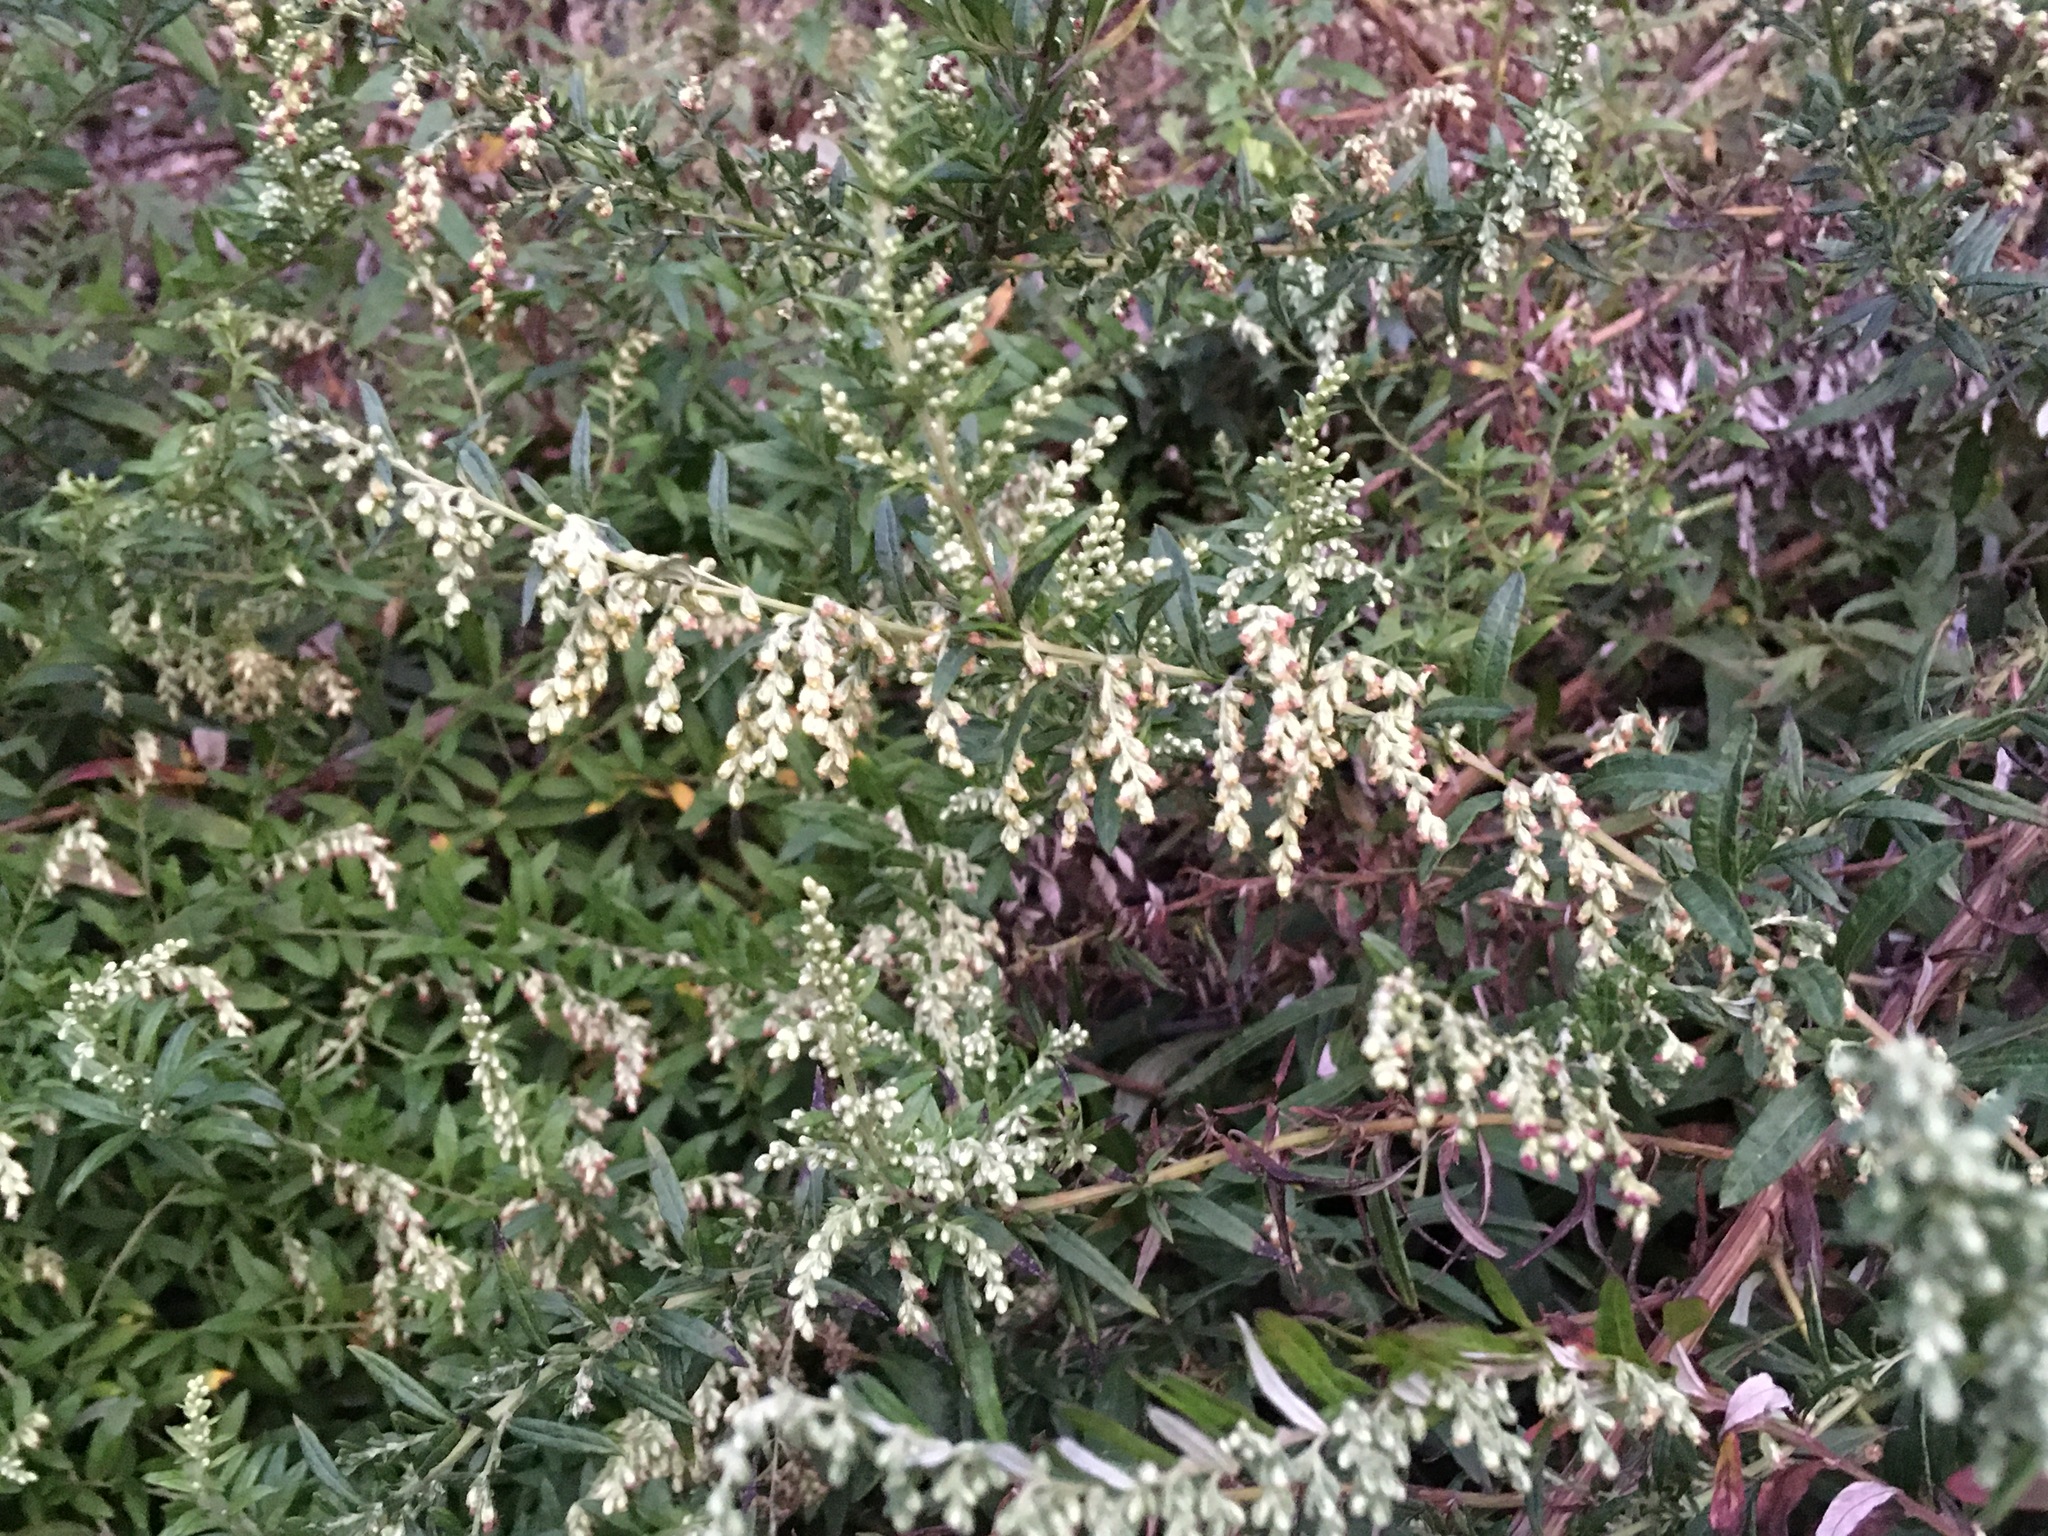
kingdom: Plantae
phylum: Tracheophyta
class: Magnoliopsida
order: Asterales
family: Asteraceae
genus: Artemisia
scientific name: Artemisia vulgaris
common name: Mugwort
